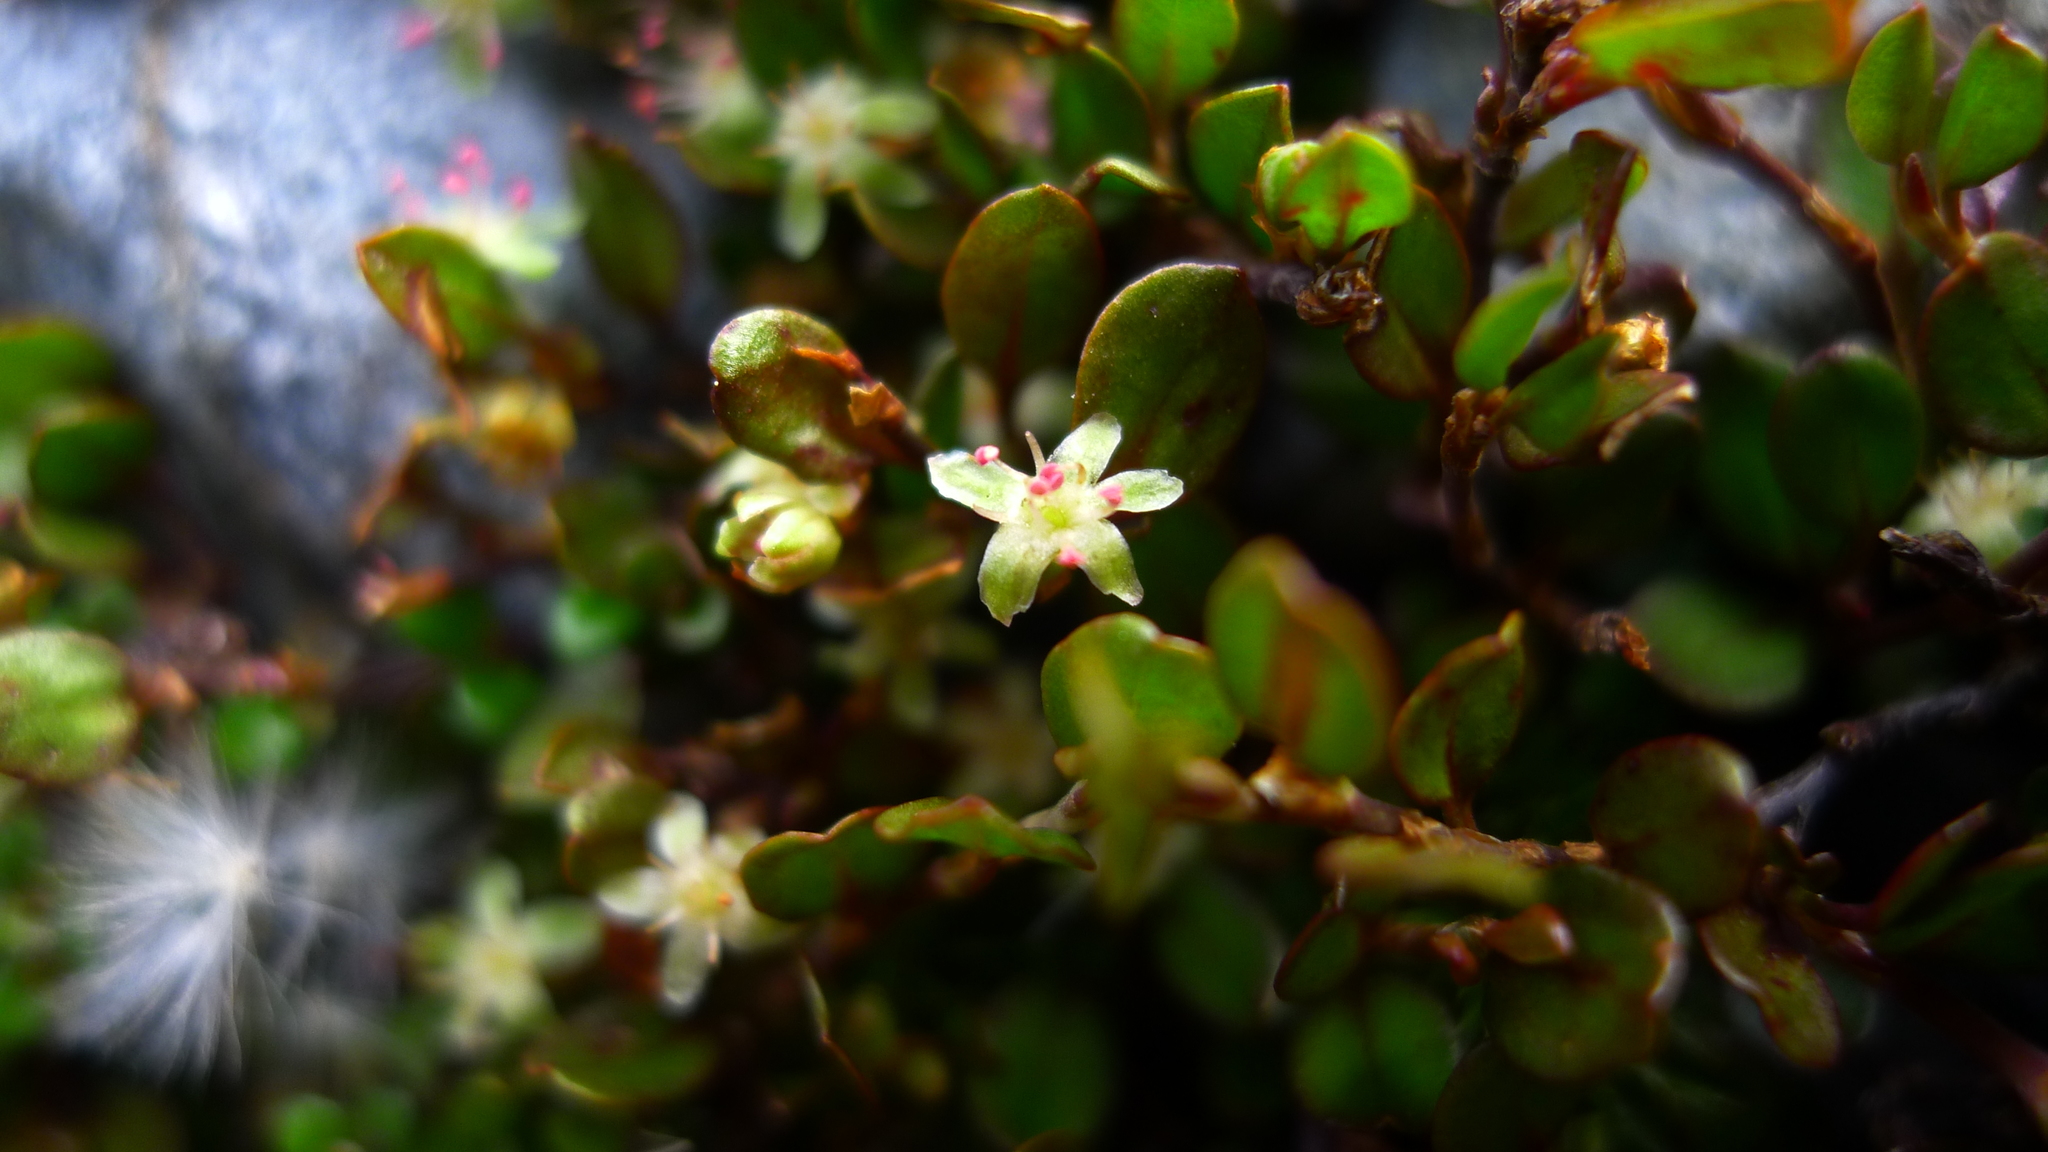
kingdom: Plantae
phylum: Tracheophyta
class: Magnoliopsida
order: Caryophyllales
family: Polygonaceae
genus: Muehlenbeckia
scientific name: Muehlenbeckia axillaris
